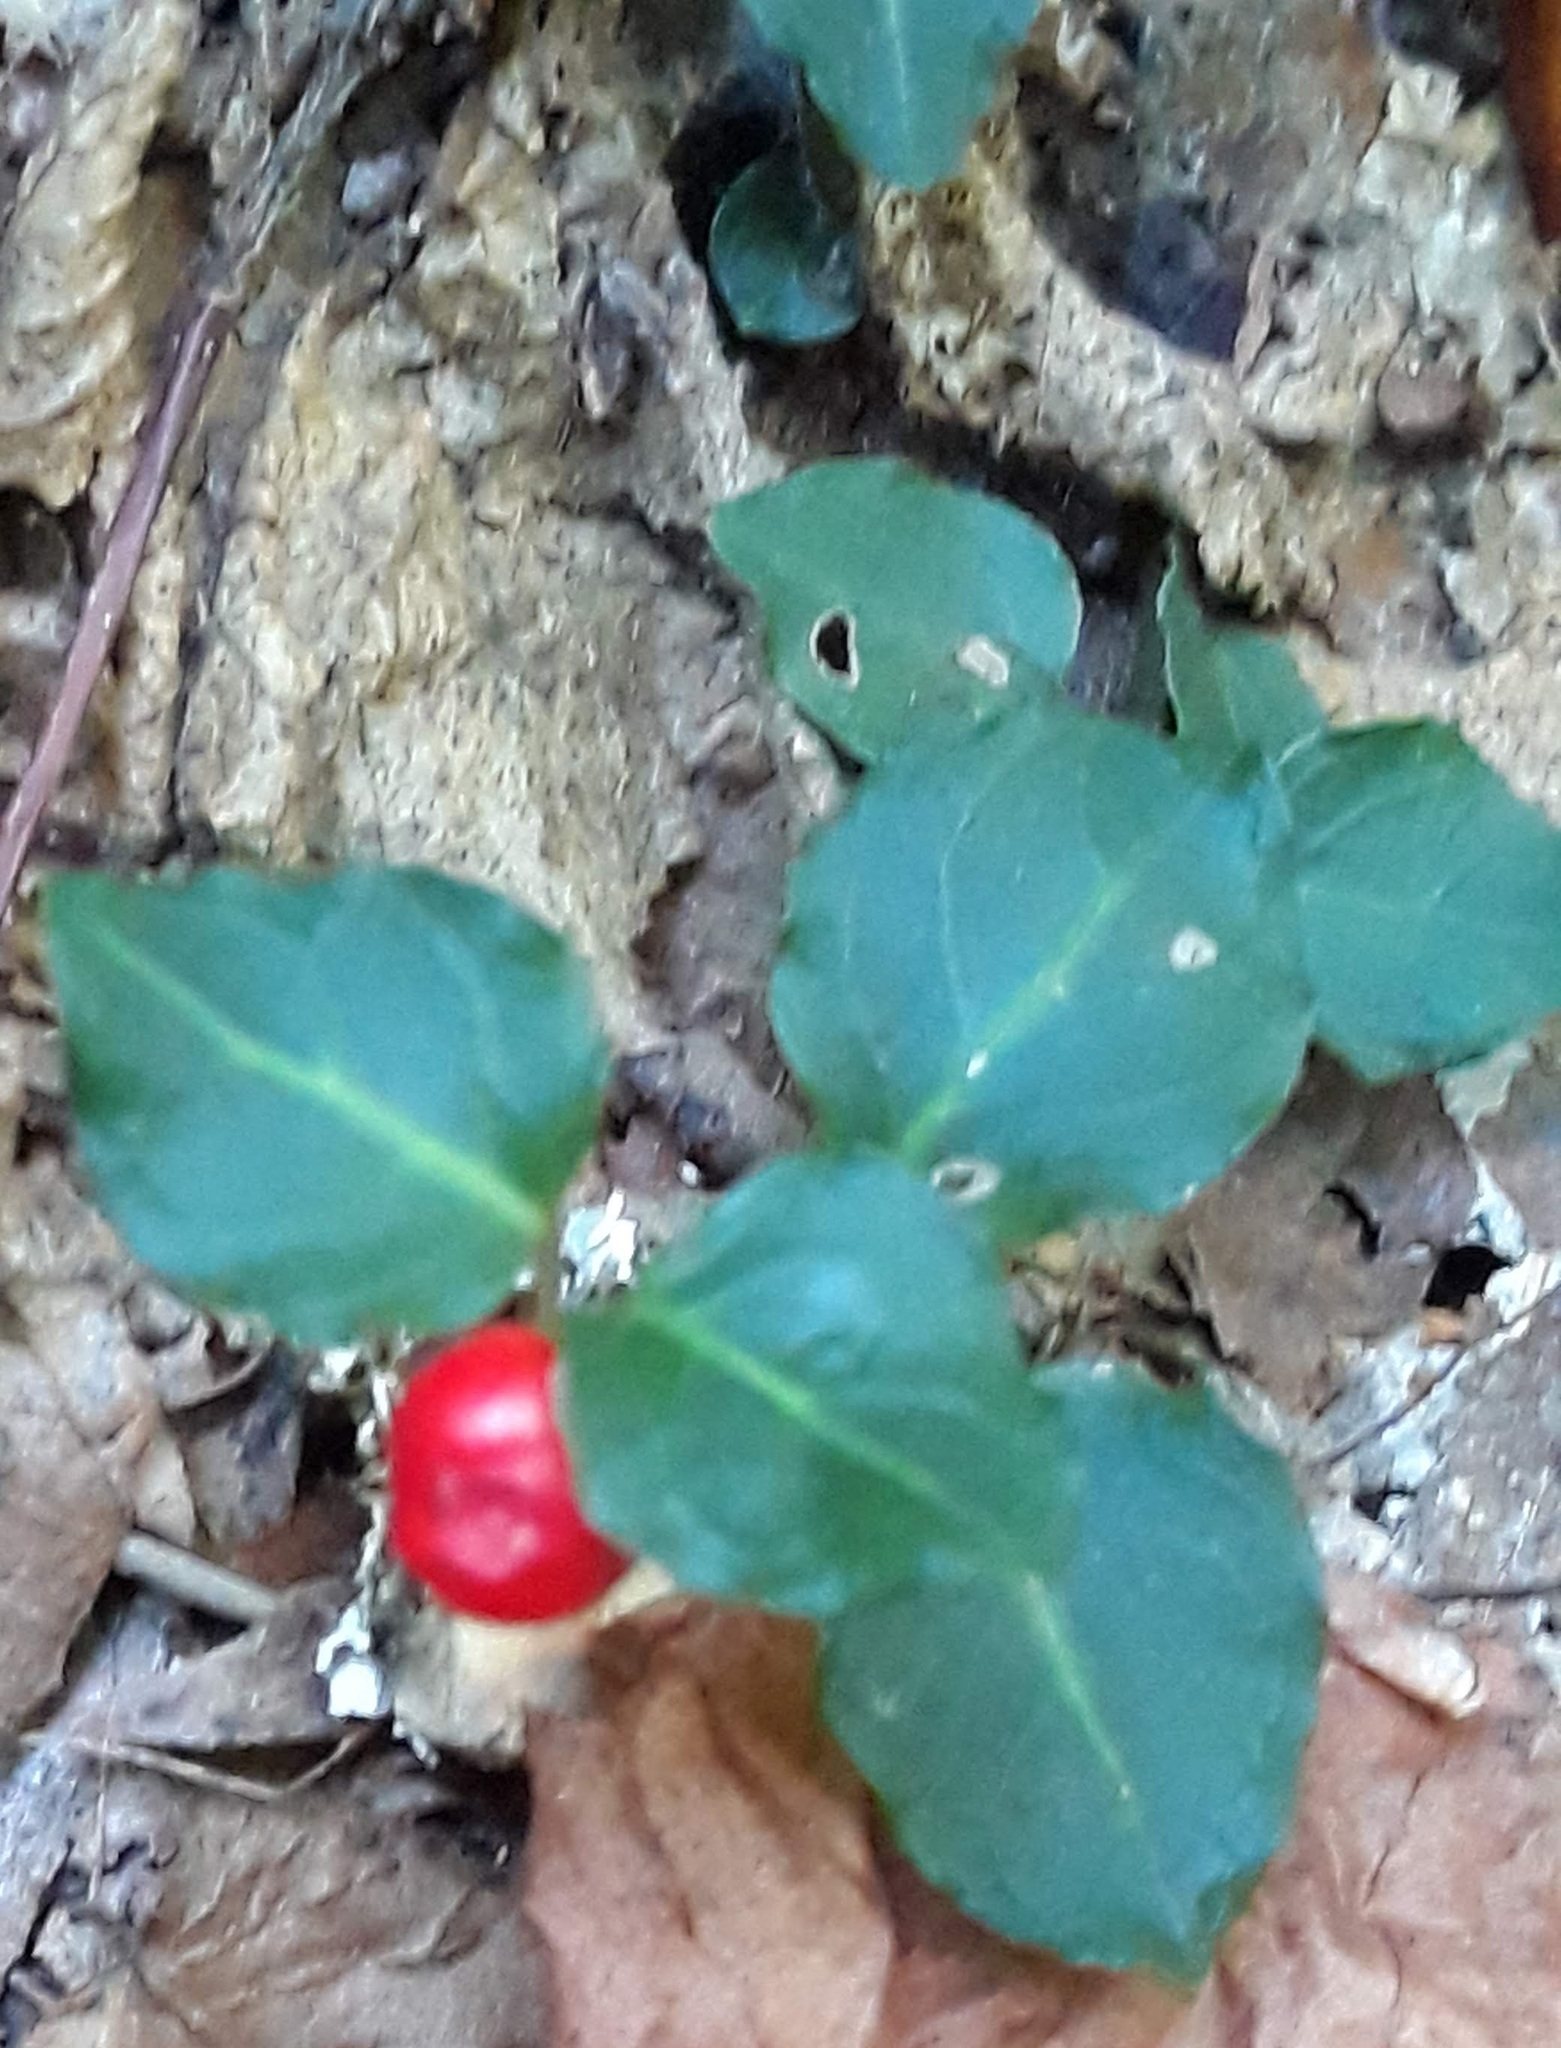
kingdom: Plantae
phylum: Tracheophyta
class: Magnoliopsida
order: Gentianales
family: Rubiaceae
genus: Mitchella
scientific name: Mitchella repens
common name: Partridge-berry
